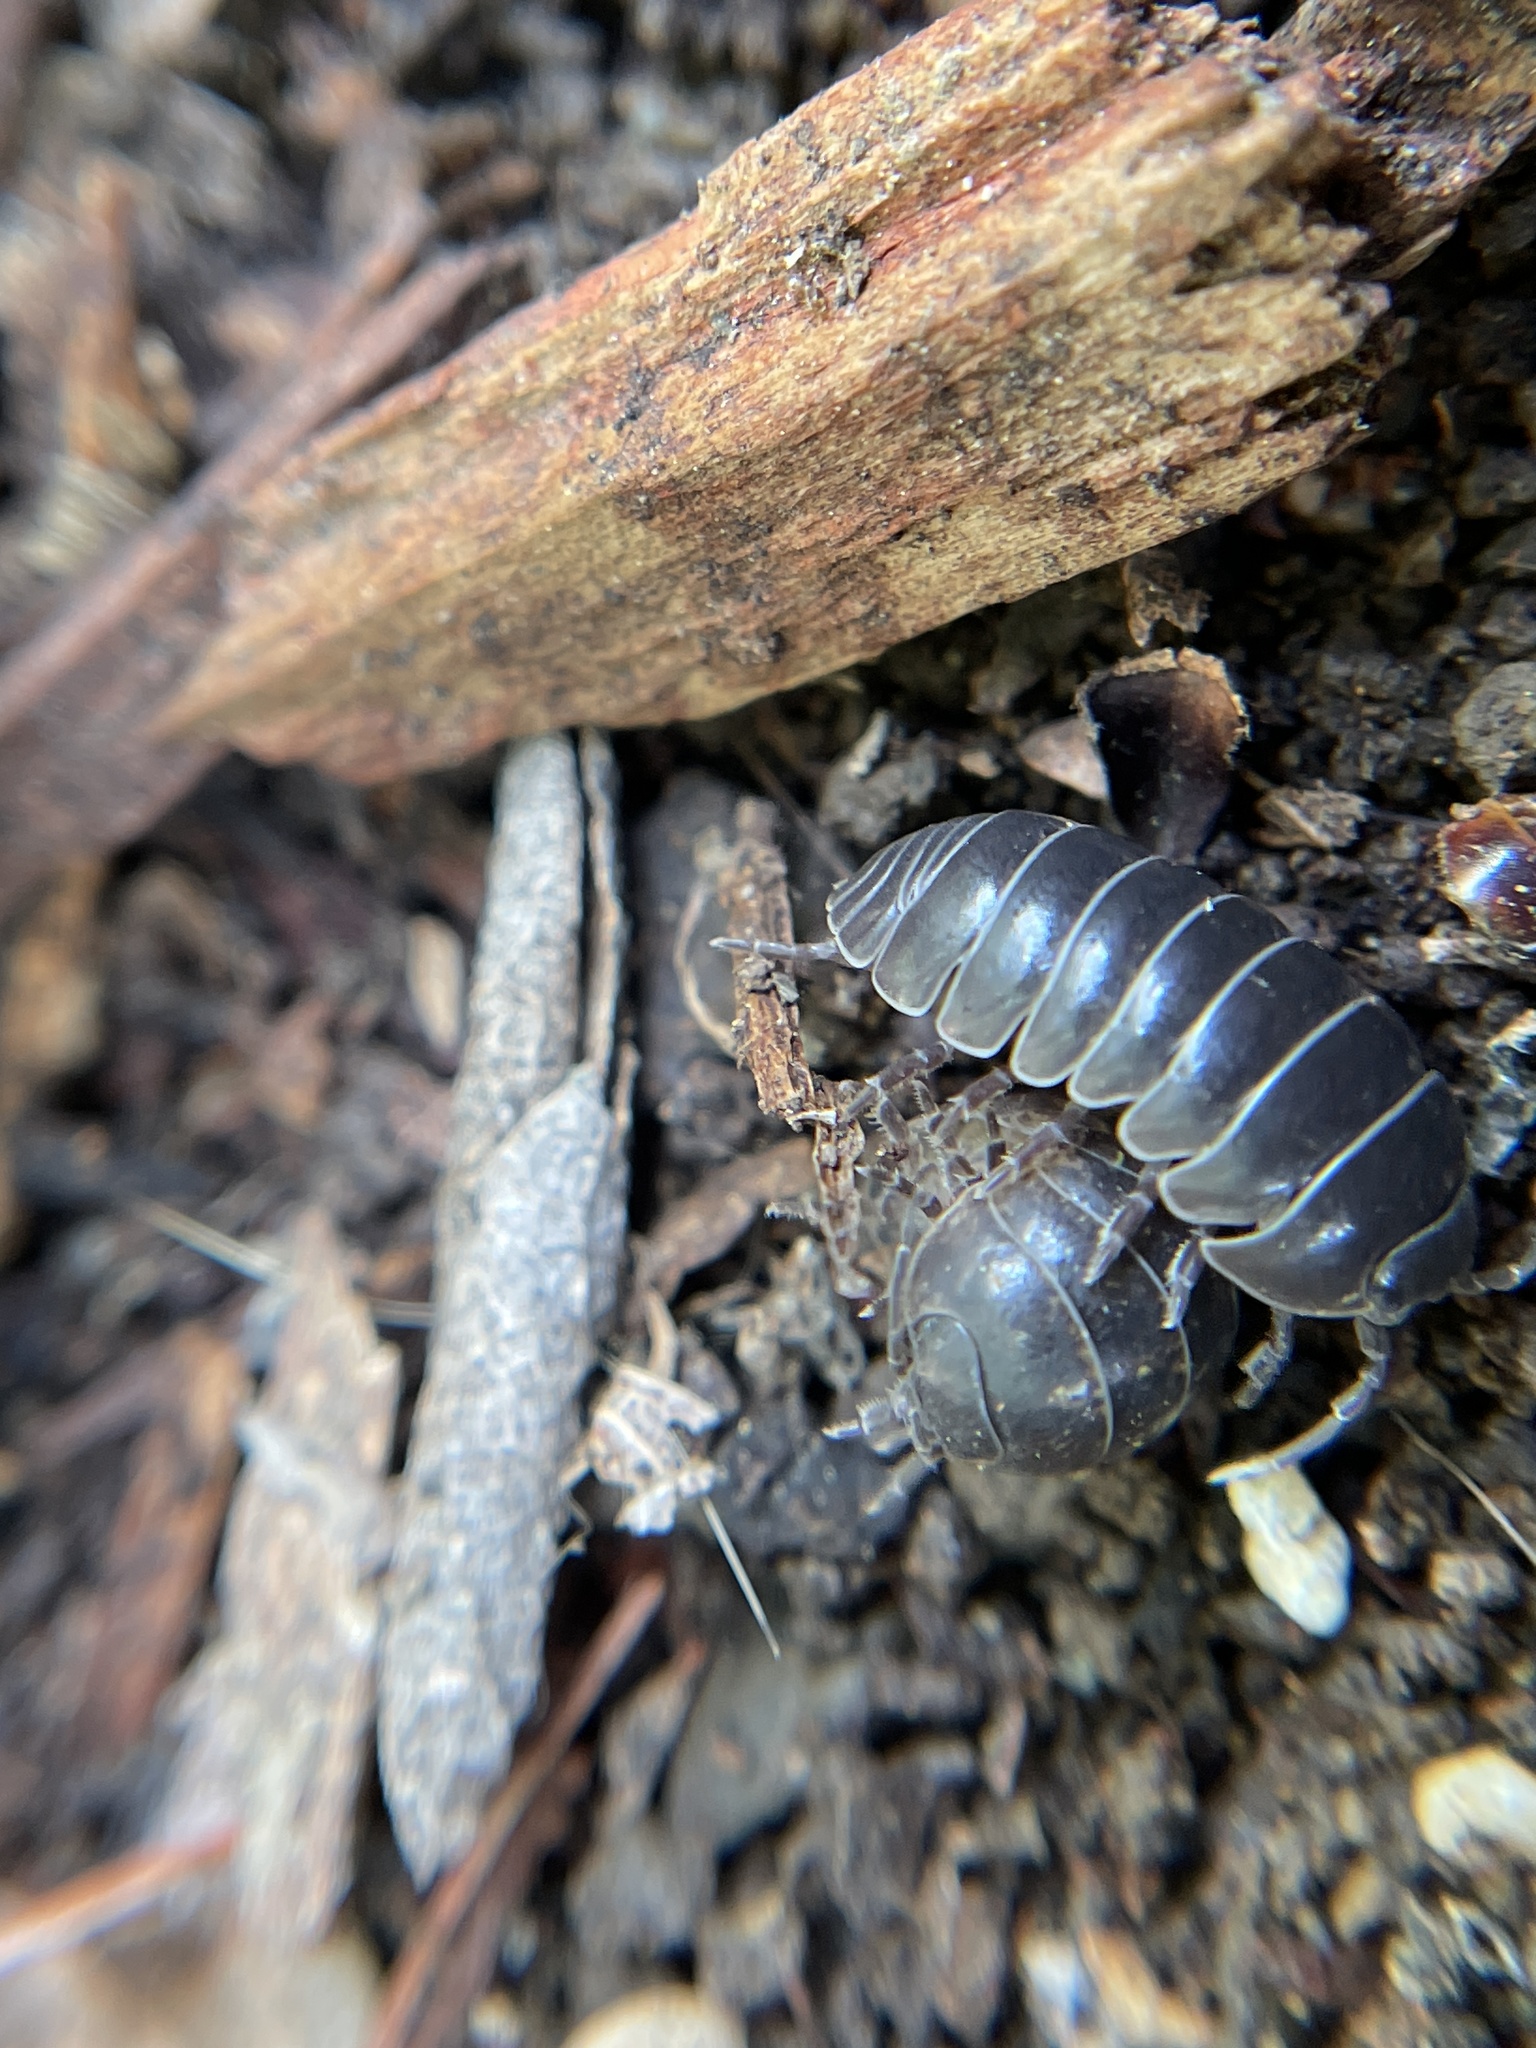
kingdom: Animalia
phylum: Arthropoda
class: Malacostraca
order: Isopoda
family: Armadillidiidae
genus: Armadillidium
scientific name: Armadillidium vulgare
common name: Common pill woodlouse
